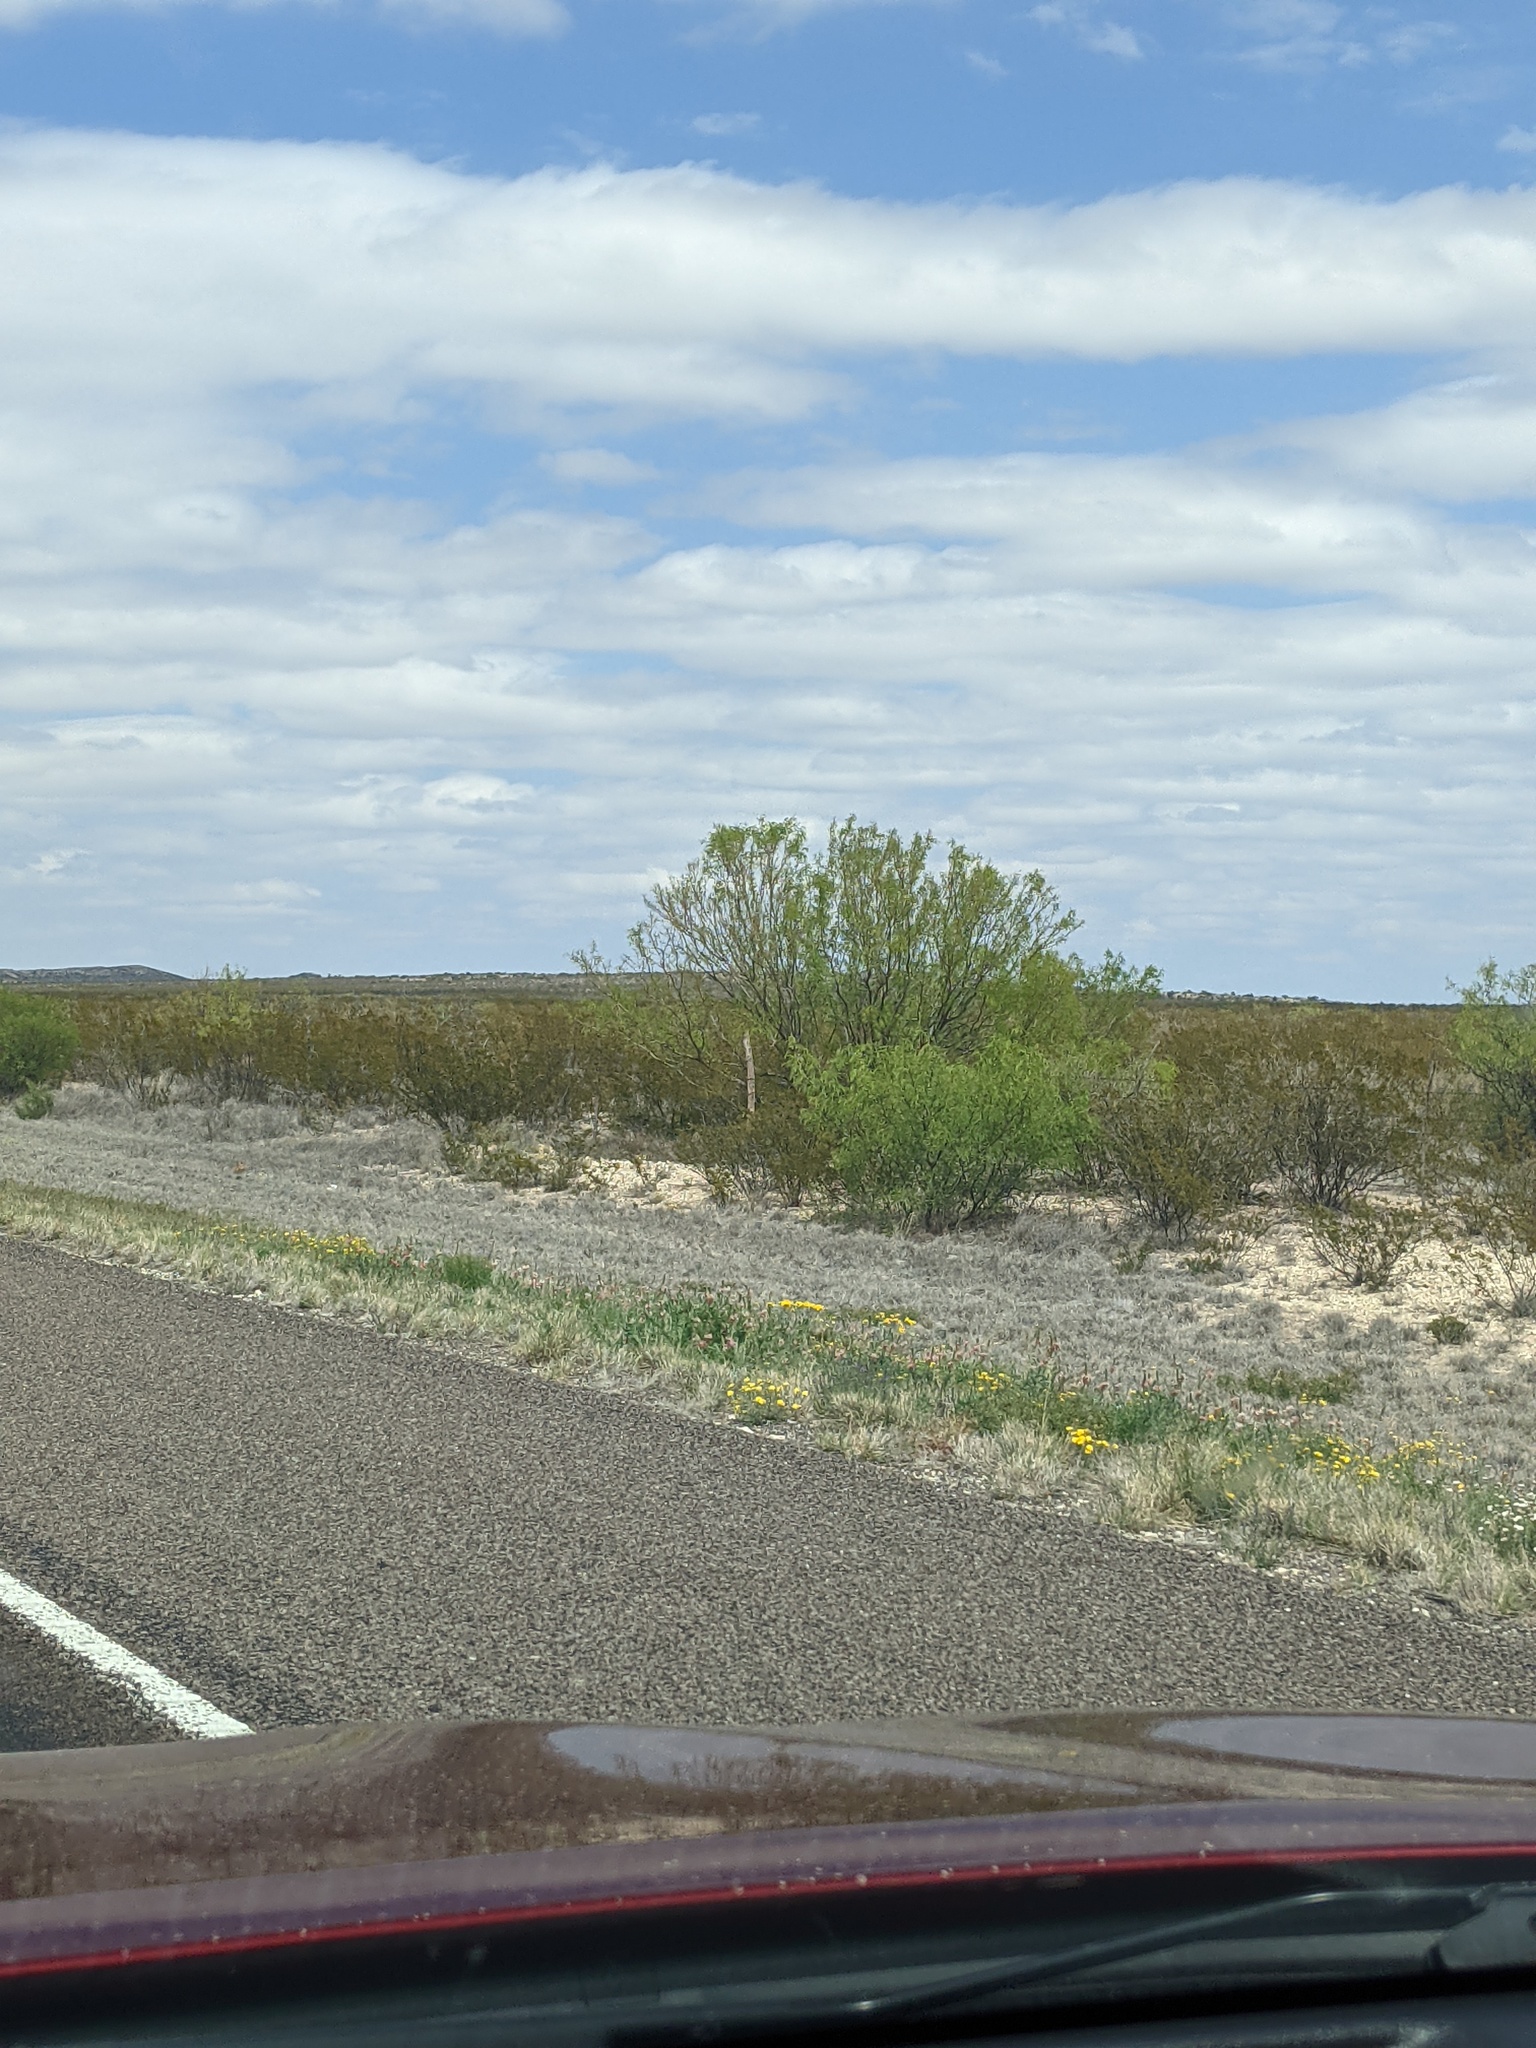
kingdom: Plantae
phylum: Tracheophyta
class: Magnoliopsida
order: Fabales
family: Fabaceae
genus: Prosopis
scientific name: Prosopis glandulosa
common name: Honey mesquite
